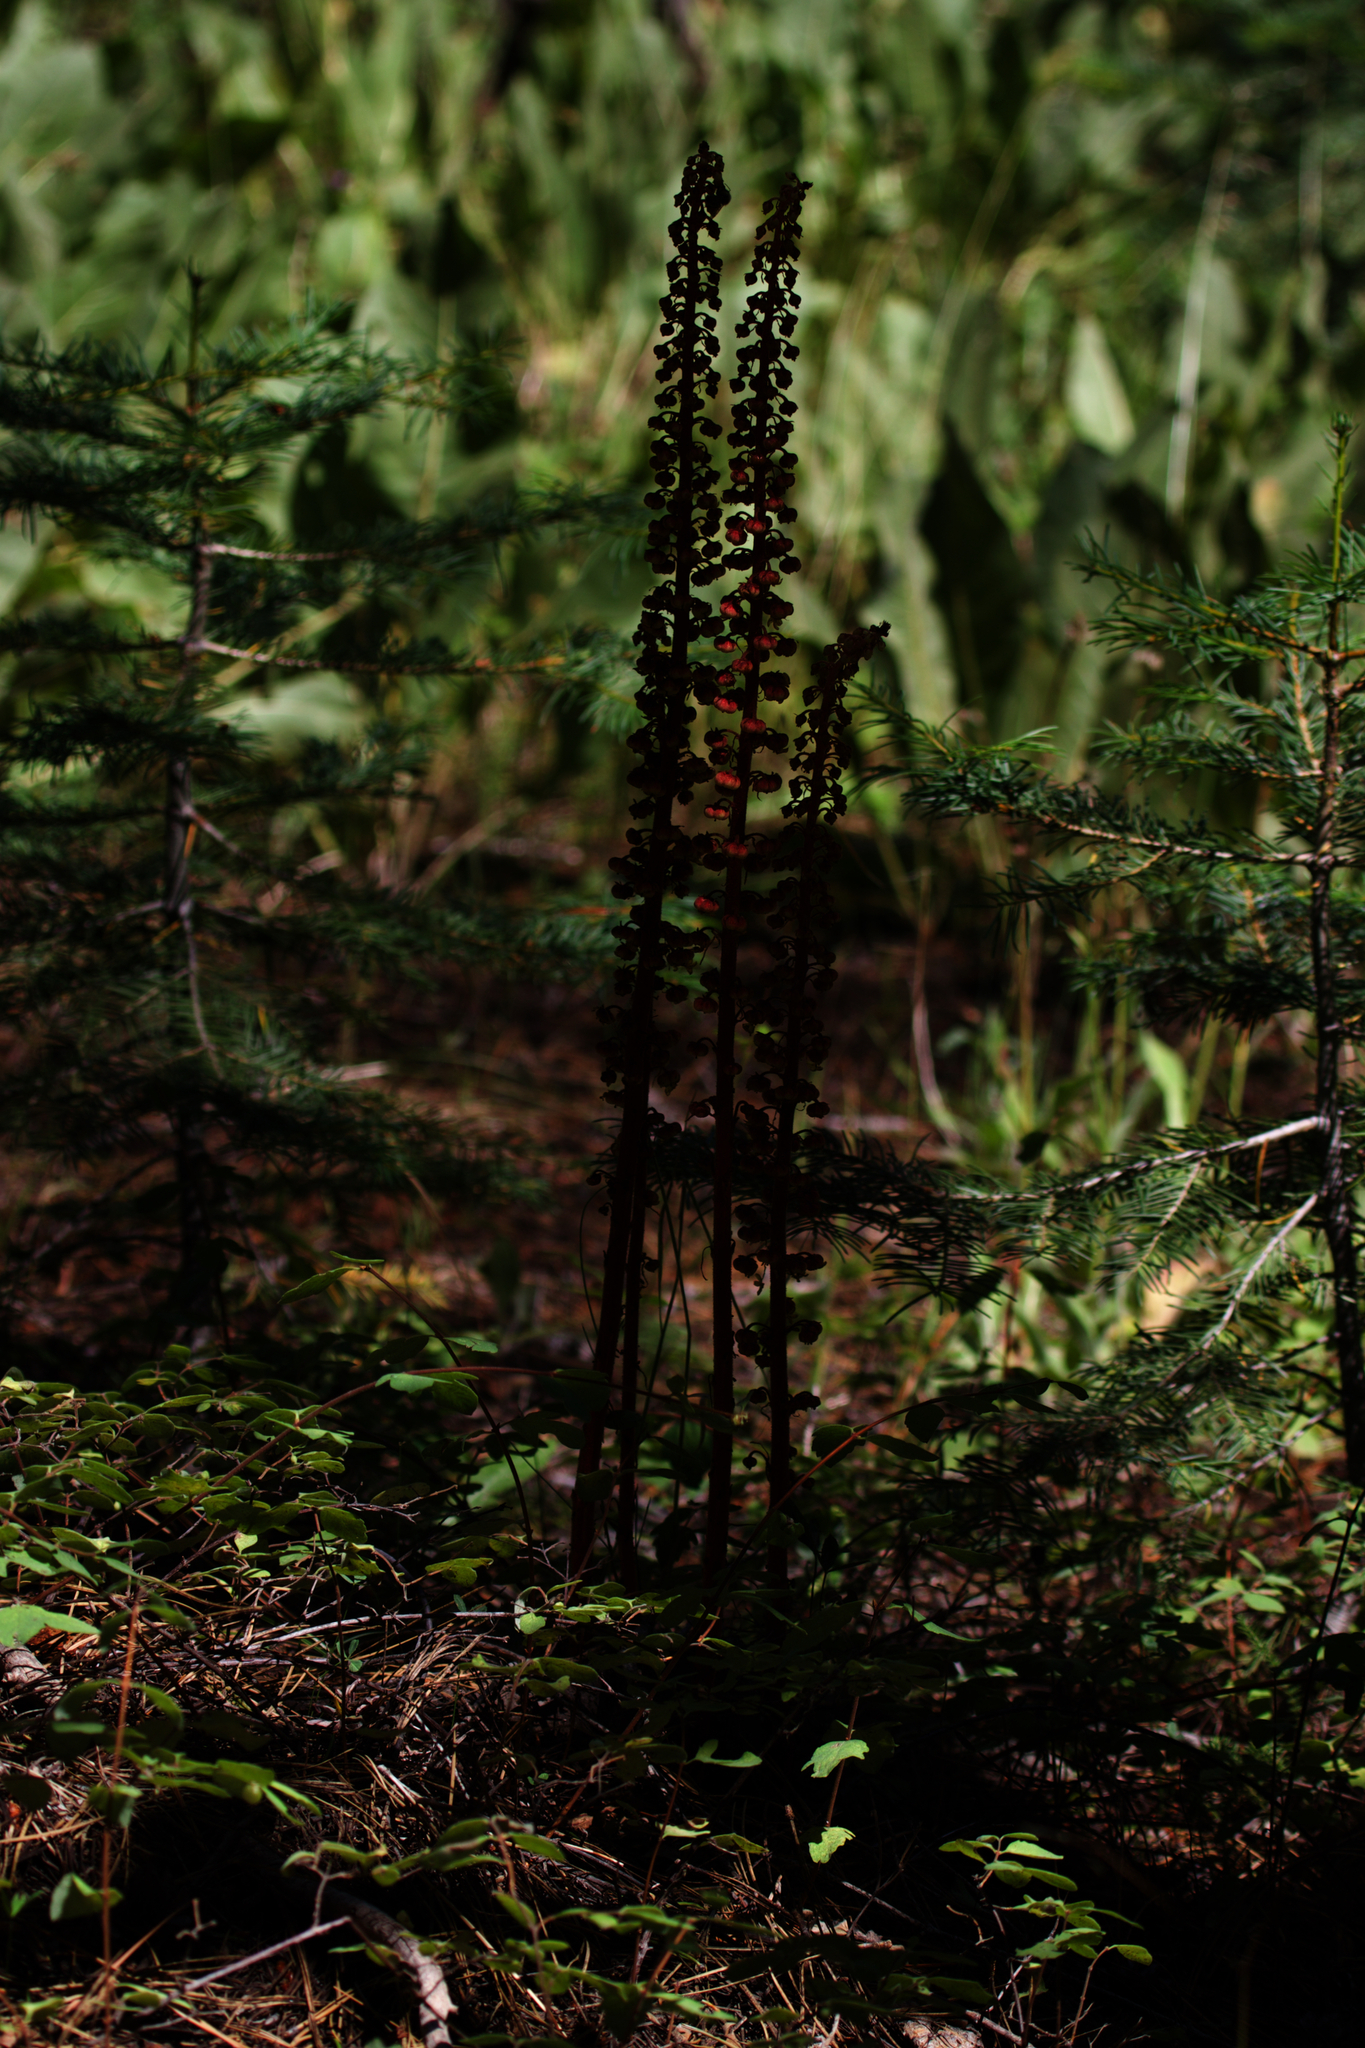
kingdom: Plantae
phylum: Tracheophyta
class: Magnoliopsida
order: Ericales
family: Ericaceae
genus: Pterospora
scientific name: Pterospora andromedea
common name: Giant bird's-nest
